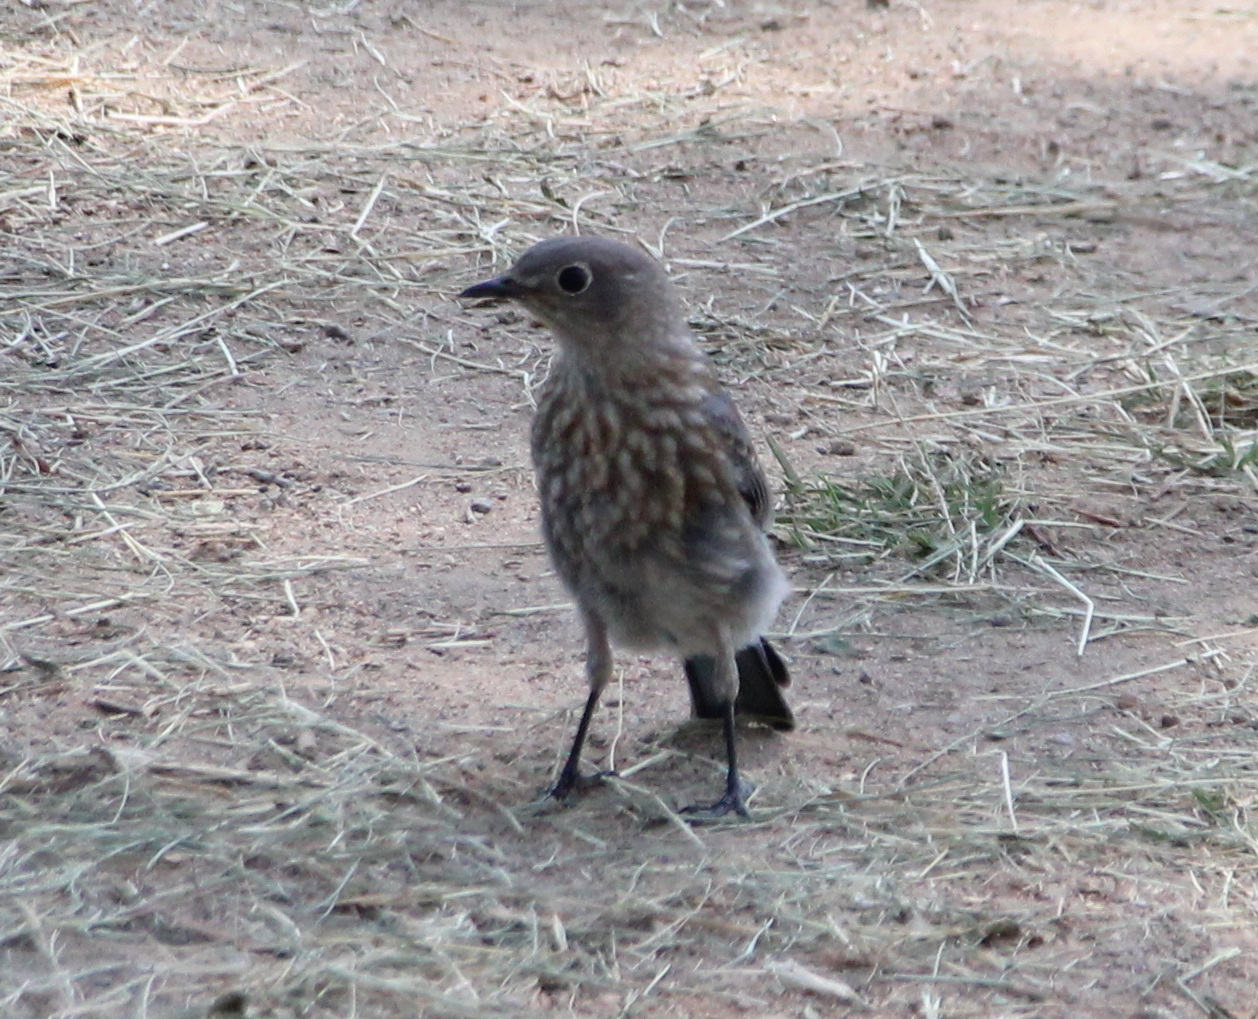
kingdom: Animalia
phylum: Chordata
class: Aves
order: Passeriformes
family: Turdidae
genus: Sialia
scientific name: Sialia mexicana
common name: Western bluebird
